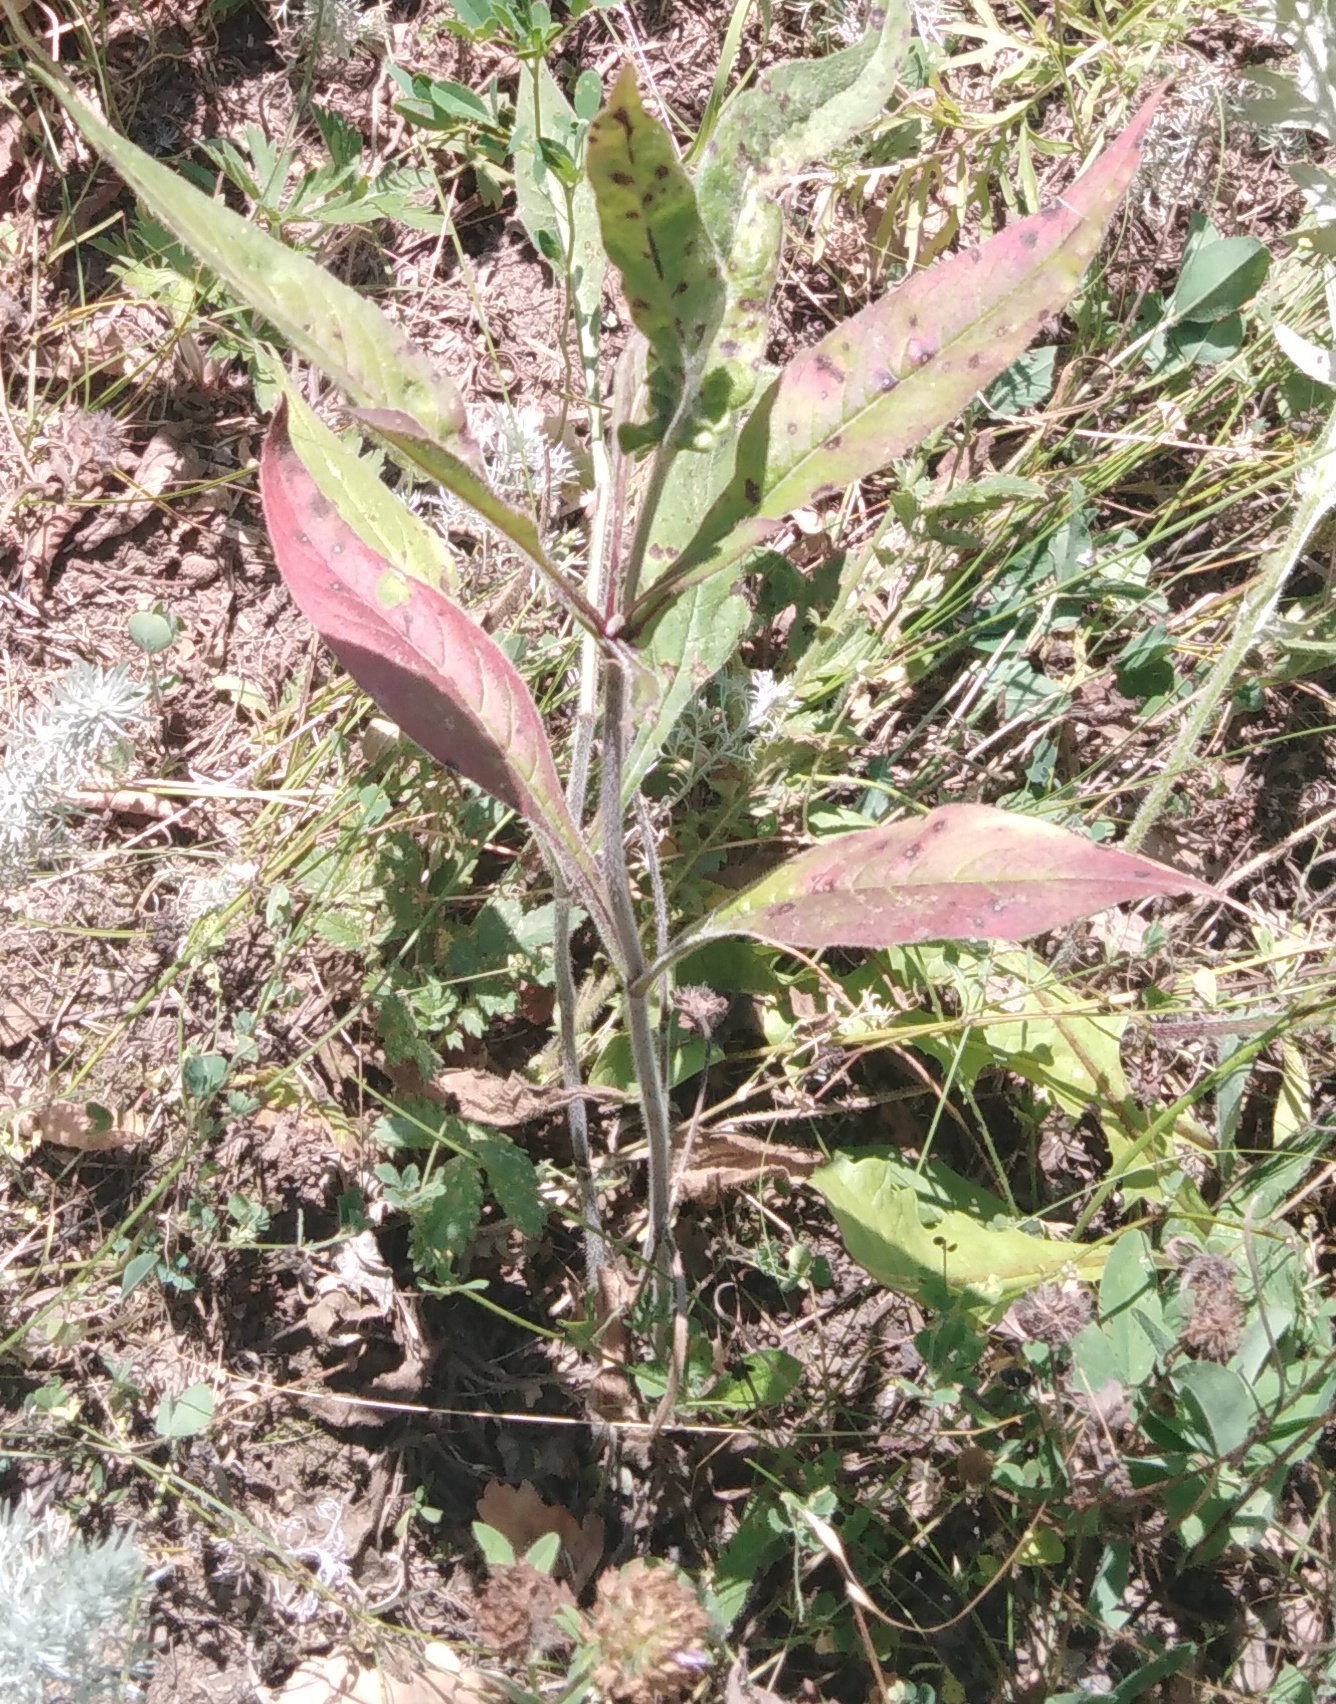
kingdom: Plantae
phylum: Tracheophyta
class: Magnoliopsida
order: Dipsacales
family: Caprifoliaceae
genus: Knautia
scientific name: Knautia arvensis
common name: Field scabiosa
